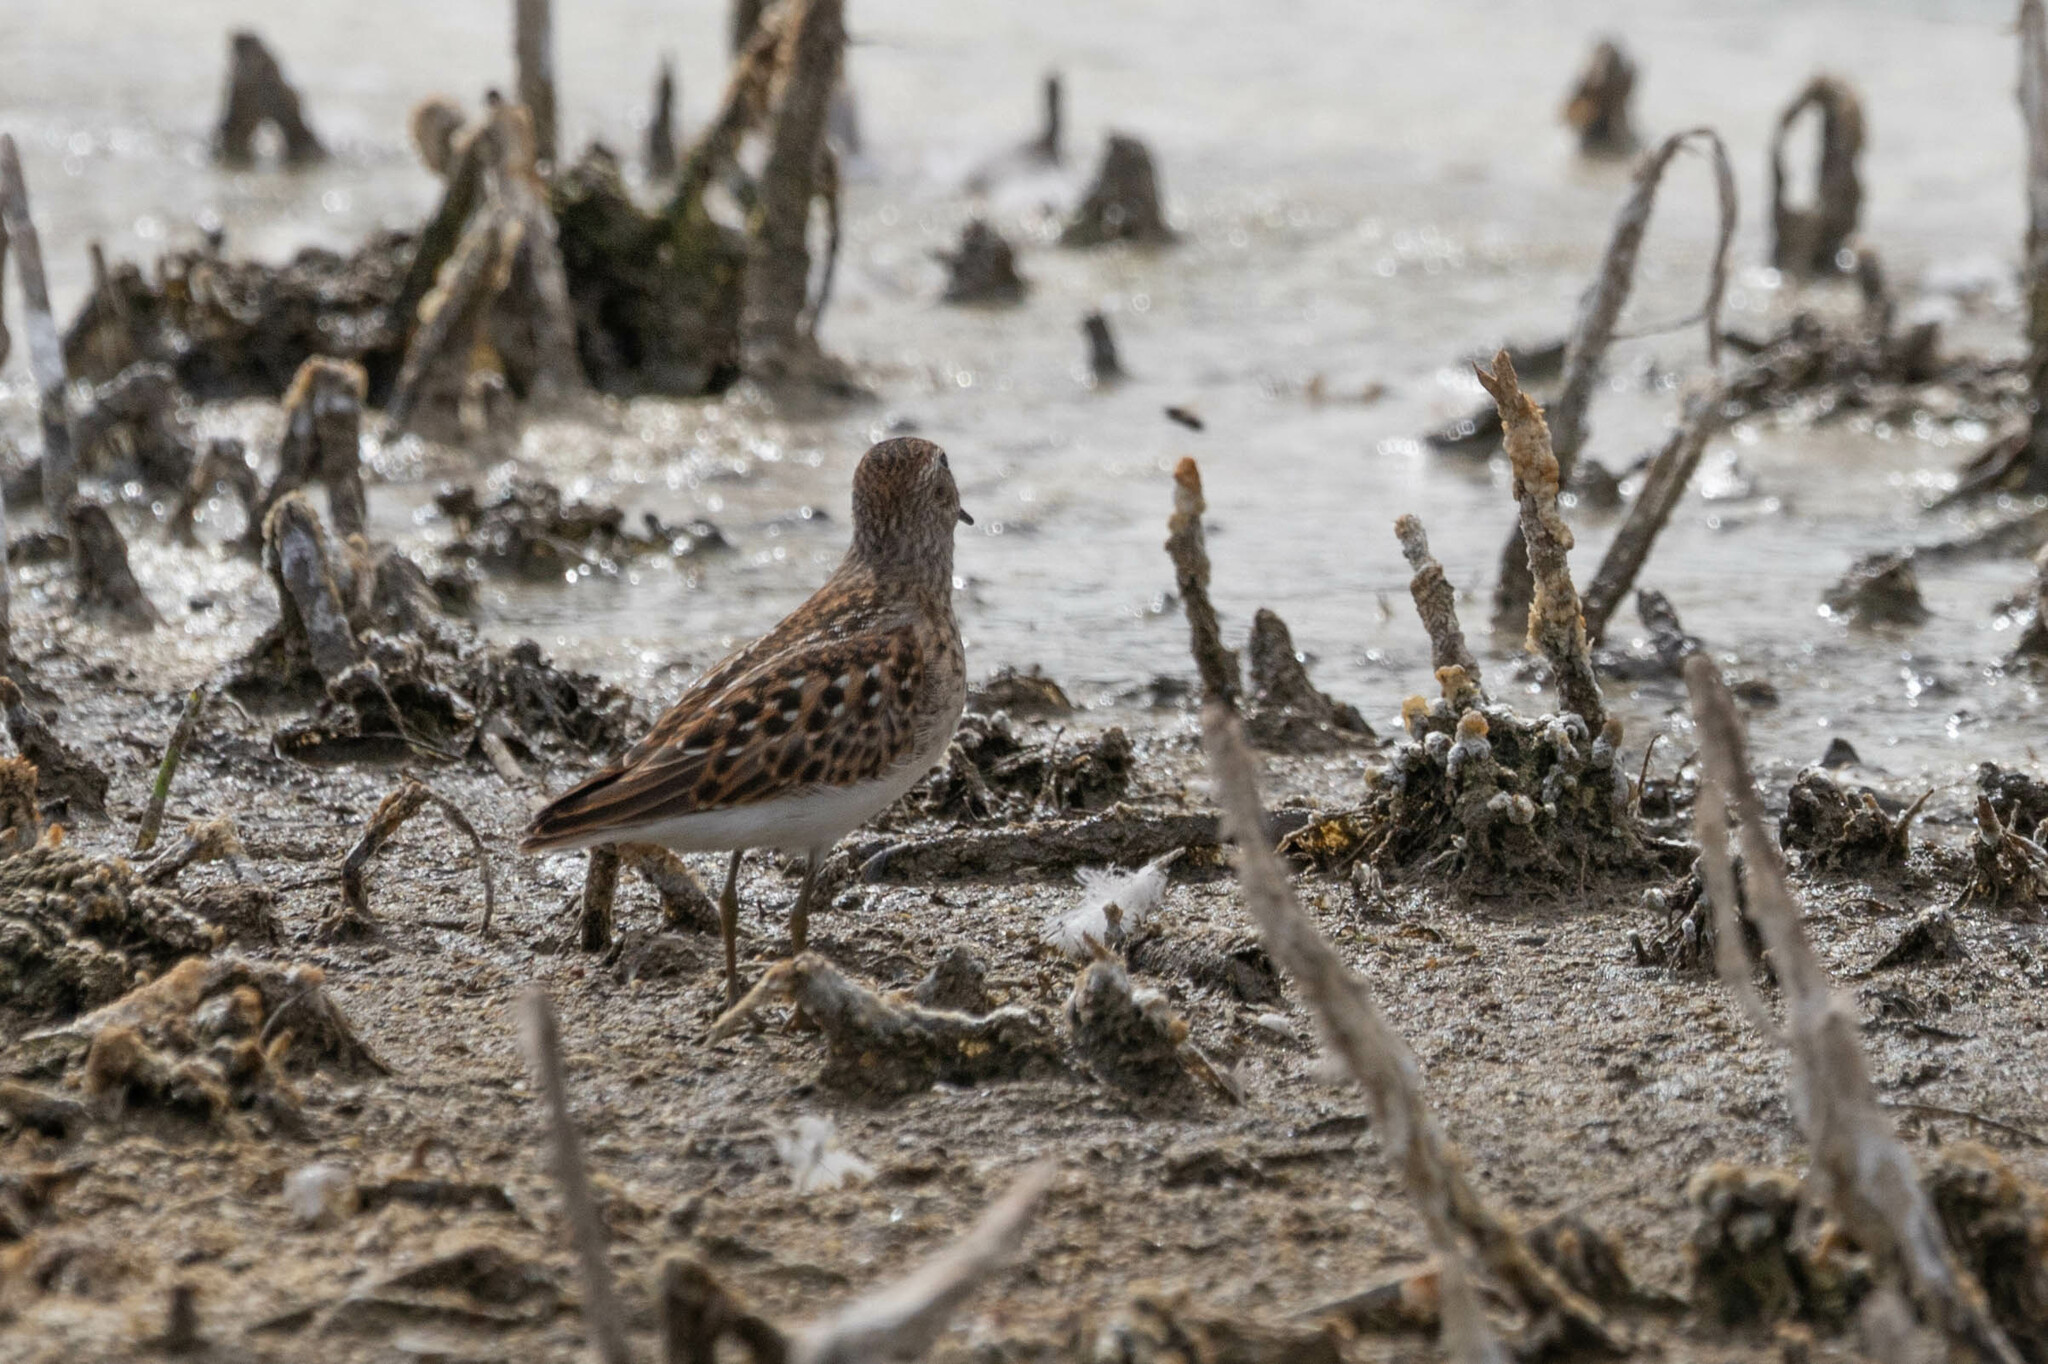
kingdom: Animalia
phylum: Chordata
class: Aves
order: Charadriiformes
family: Scolopacidae
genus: Calidris
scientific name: Calidris minutilla
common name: Least sandpiper
